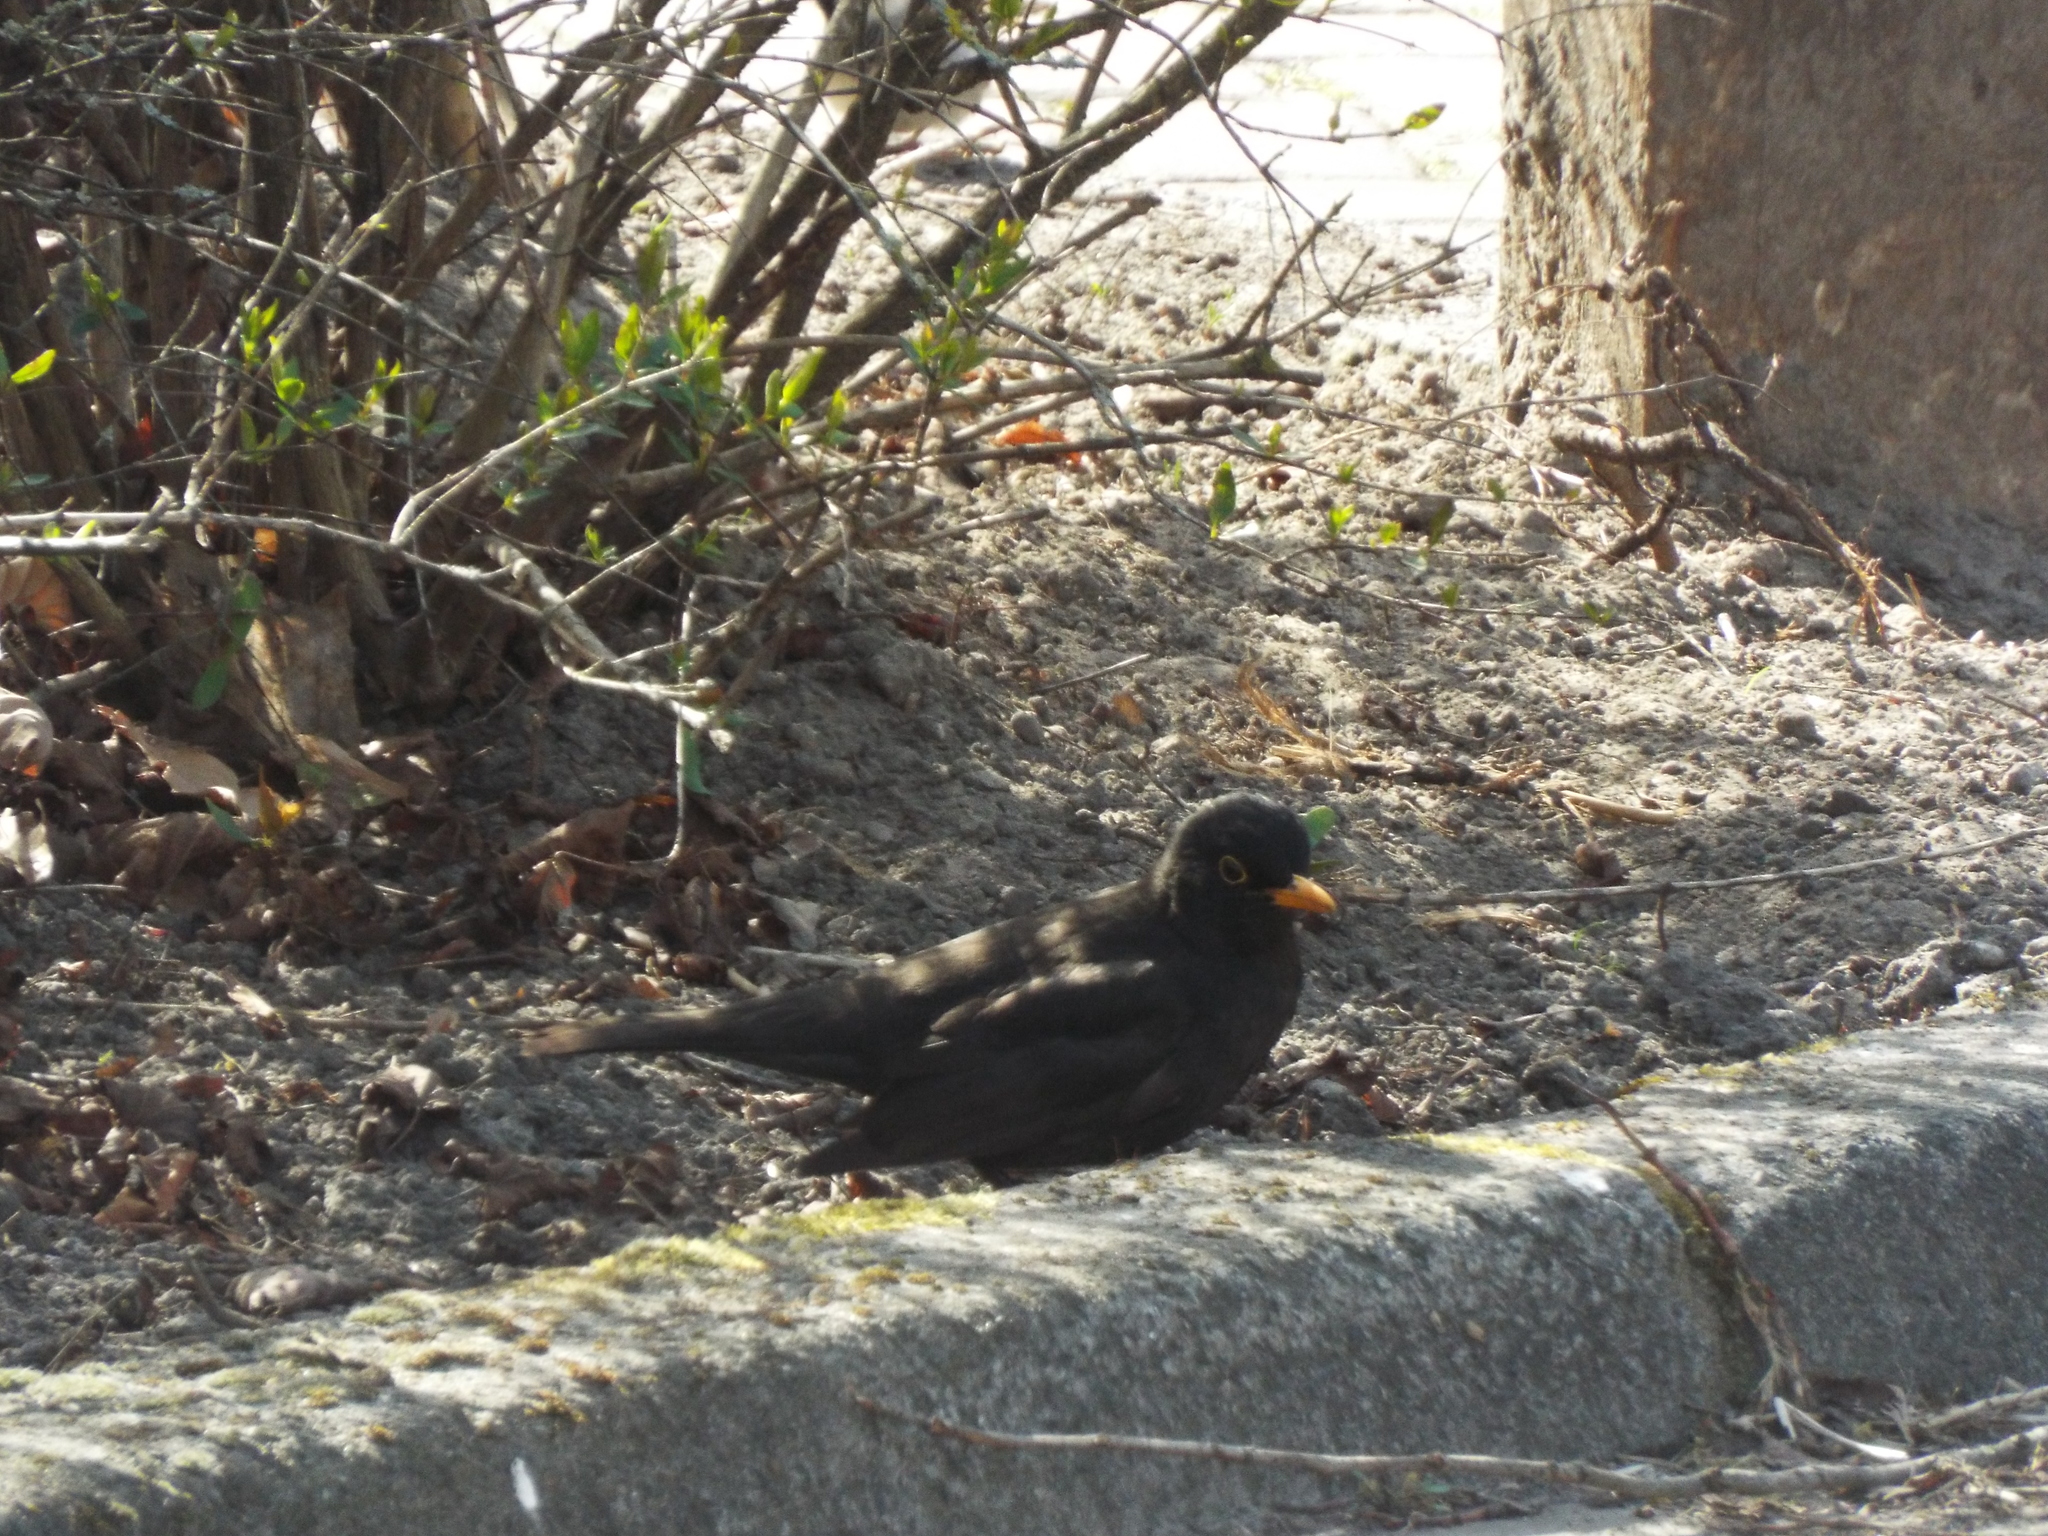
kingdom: Animalia
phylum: Chordata
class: Aves
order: Passeriformes
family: Turdidae
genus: Turdus
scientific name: Turdus merula
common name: Common blackbird
